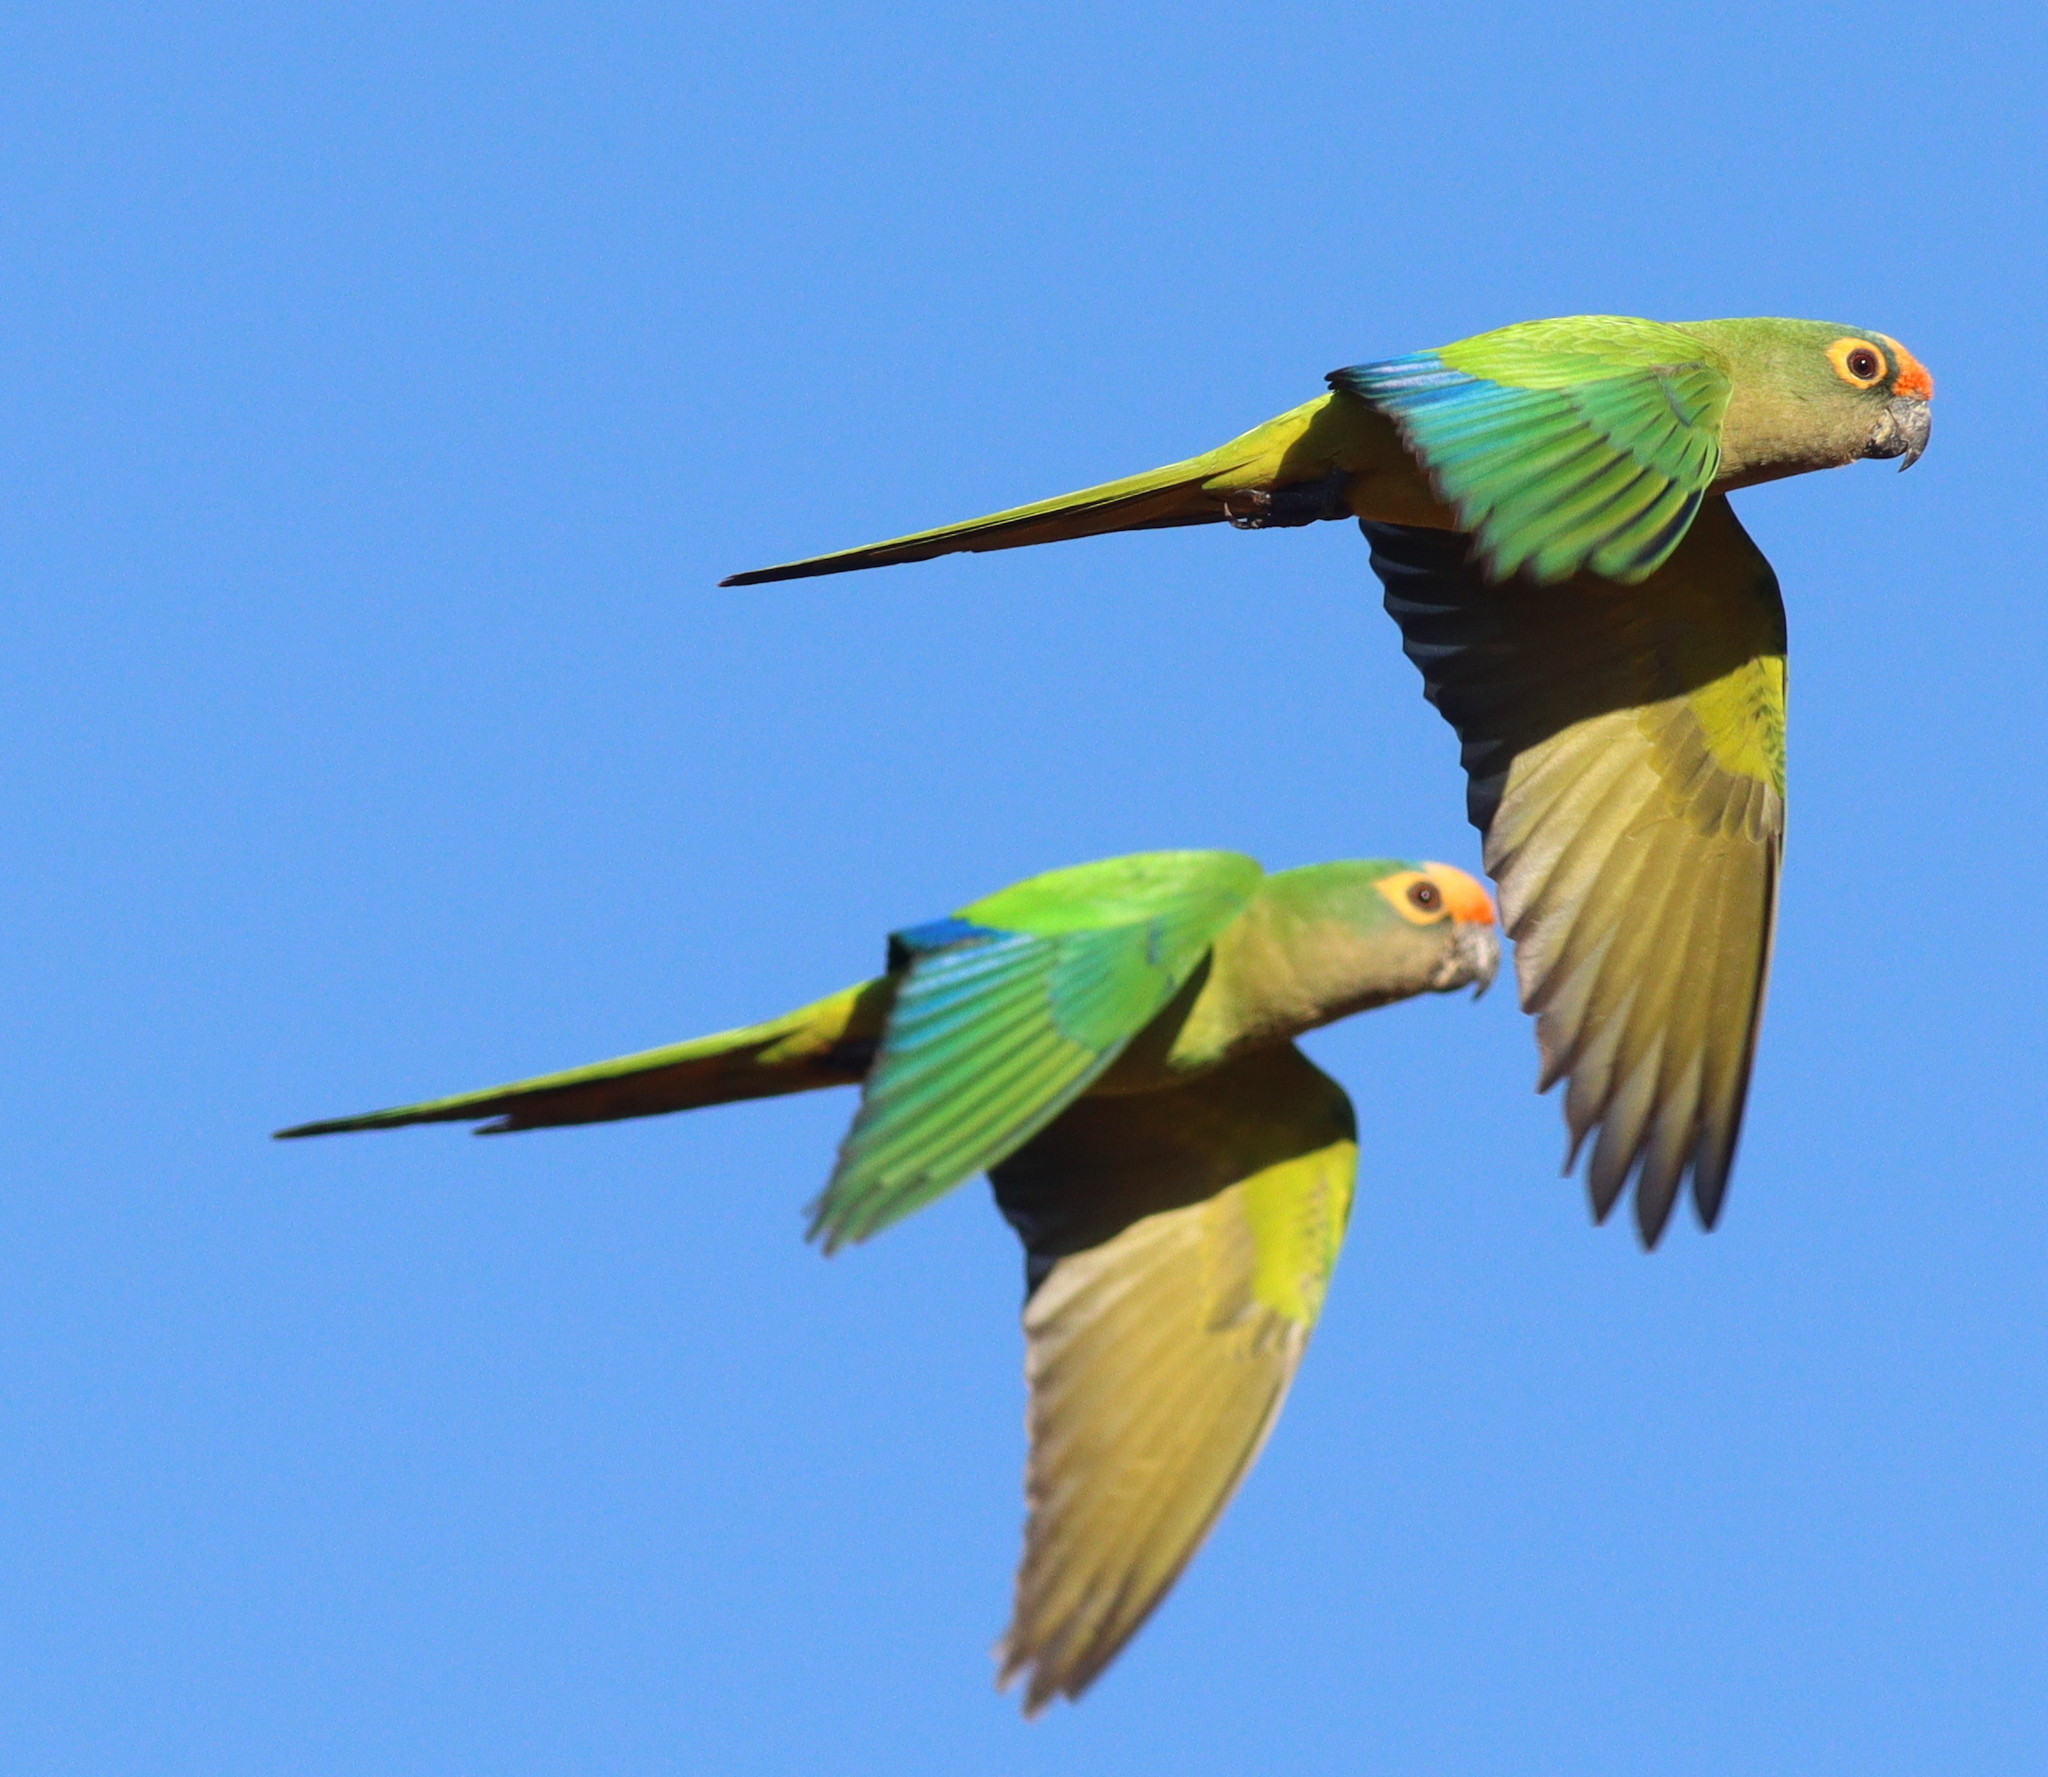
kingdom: Animalia
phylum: Chordata
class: Aves
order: Psittaciformes
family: Psittacidae
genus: Aratinga
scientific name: Aratinga aurea
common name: Peach-fronted parakeet
